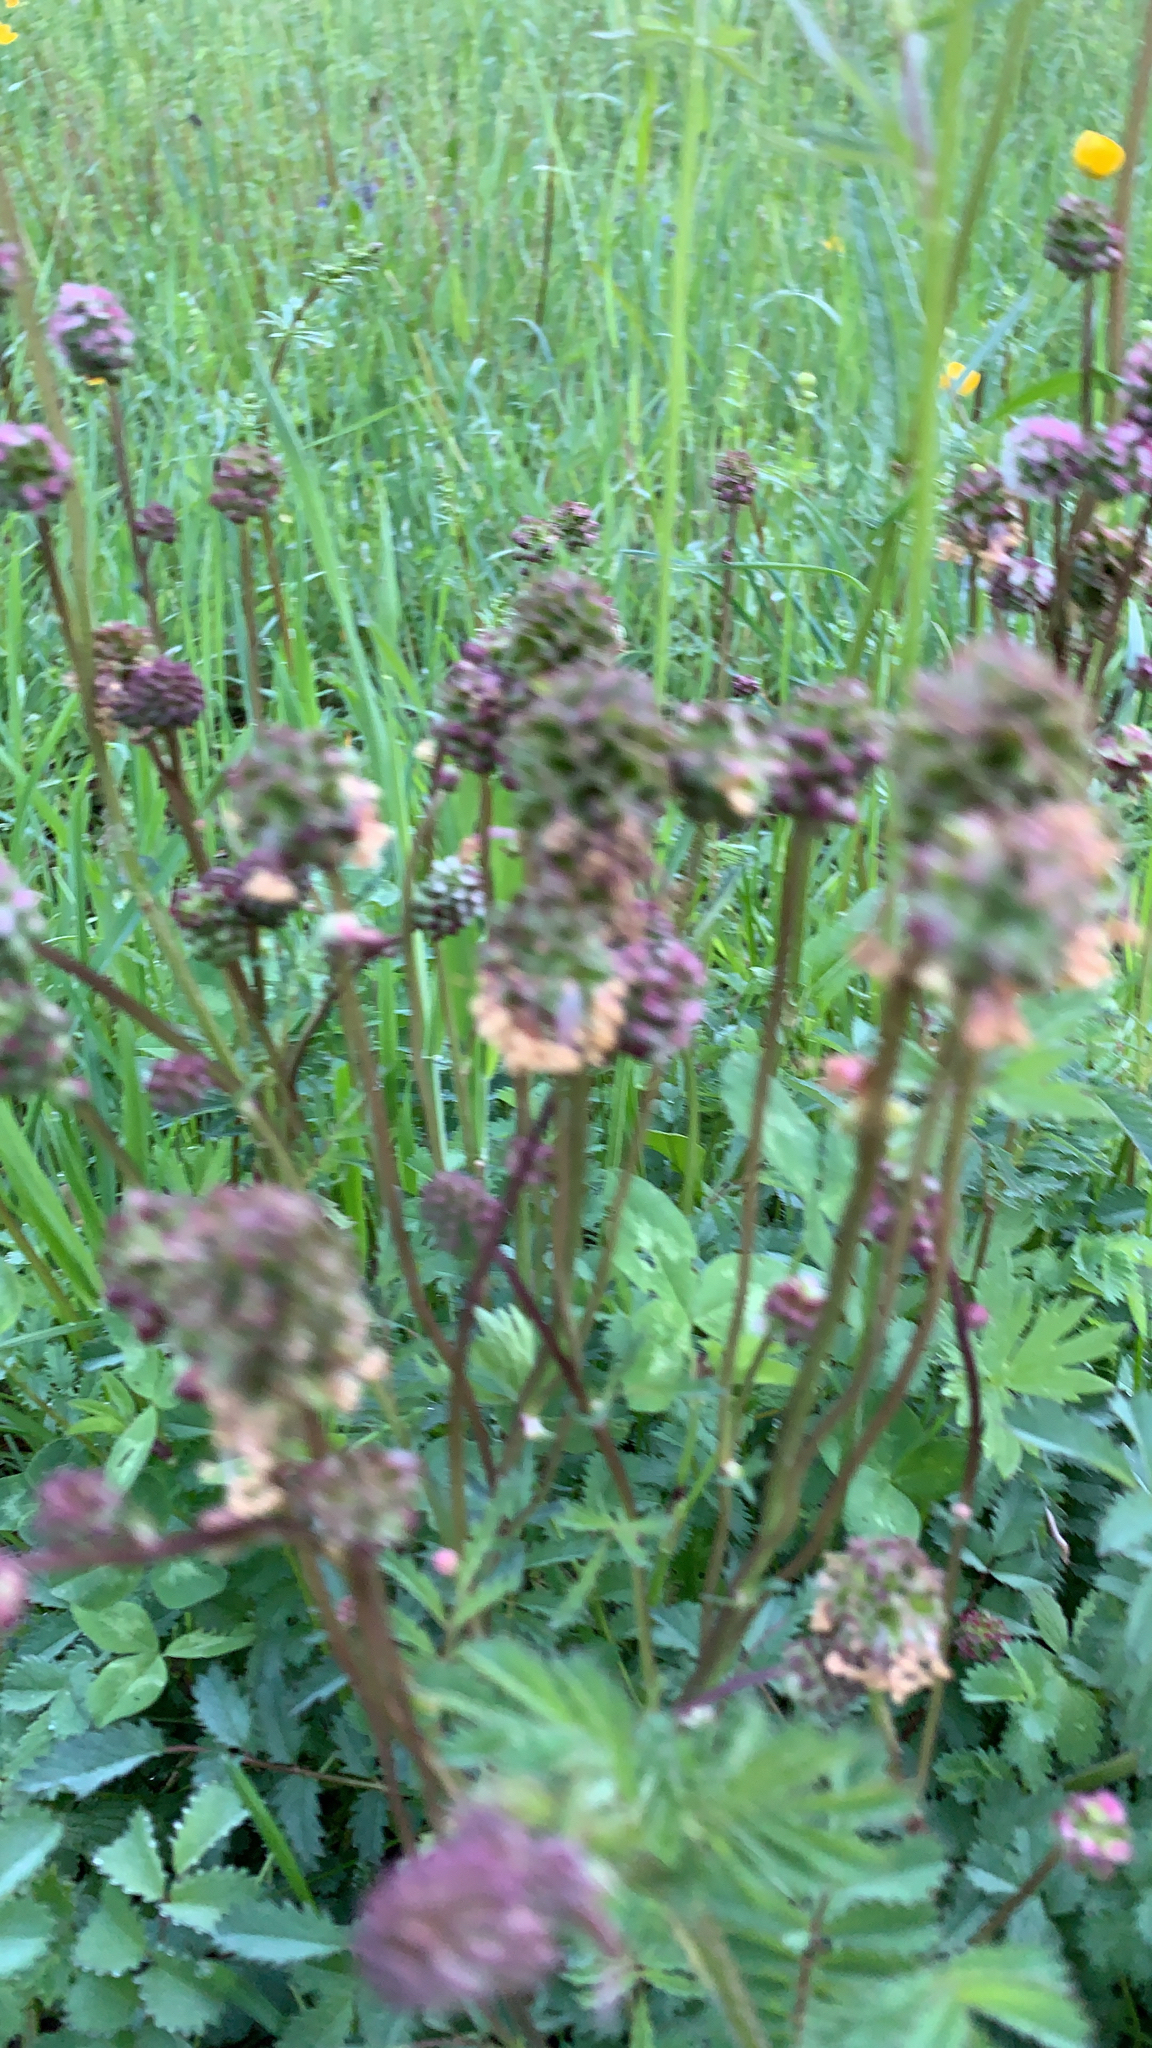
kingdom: Plantae
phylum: Tracheophyta
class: Magnoliopsida
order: Rosales
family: Rosaceae
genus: Poterium
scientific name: Poterium sanguisorba
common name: Salad burnet
